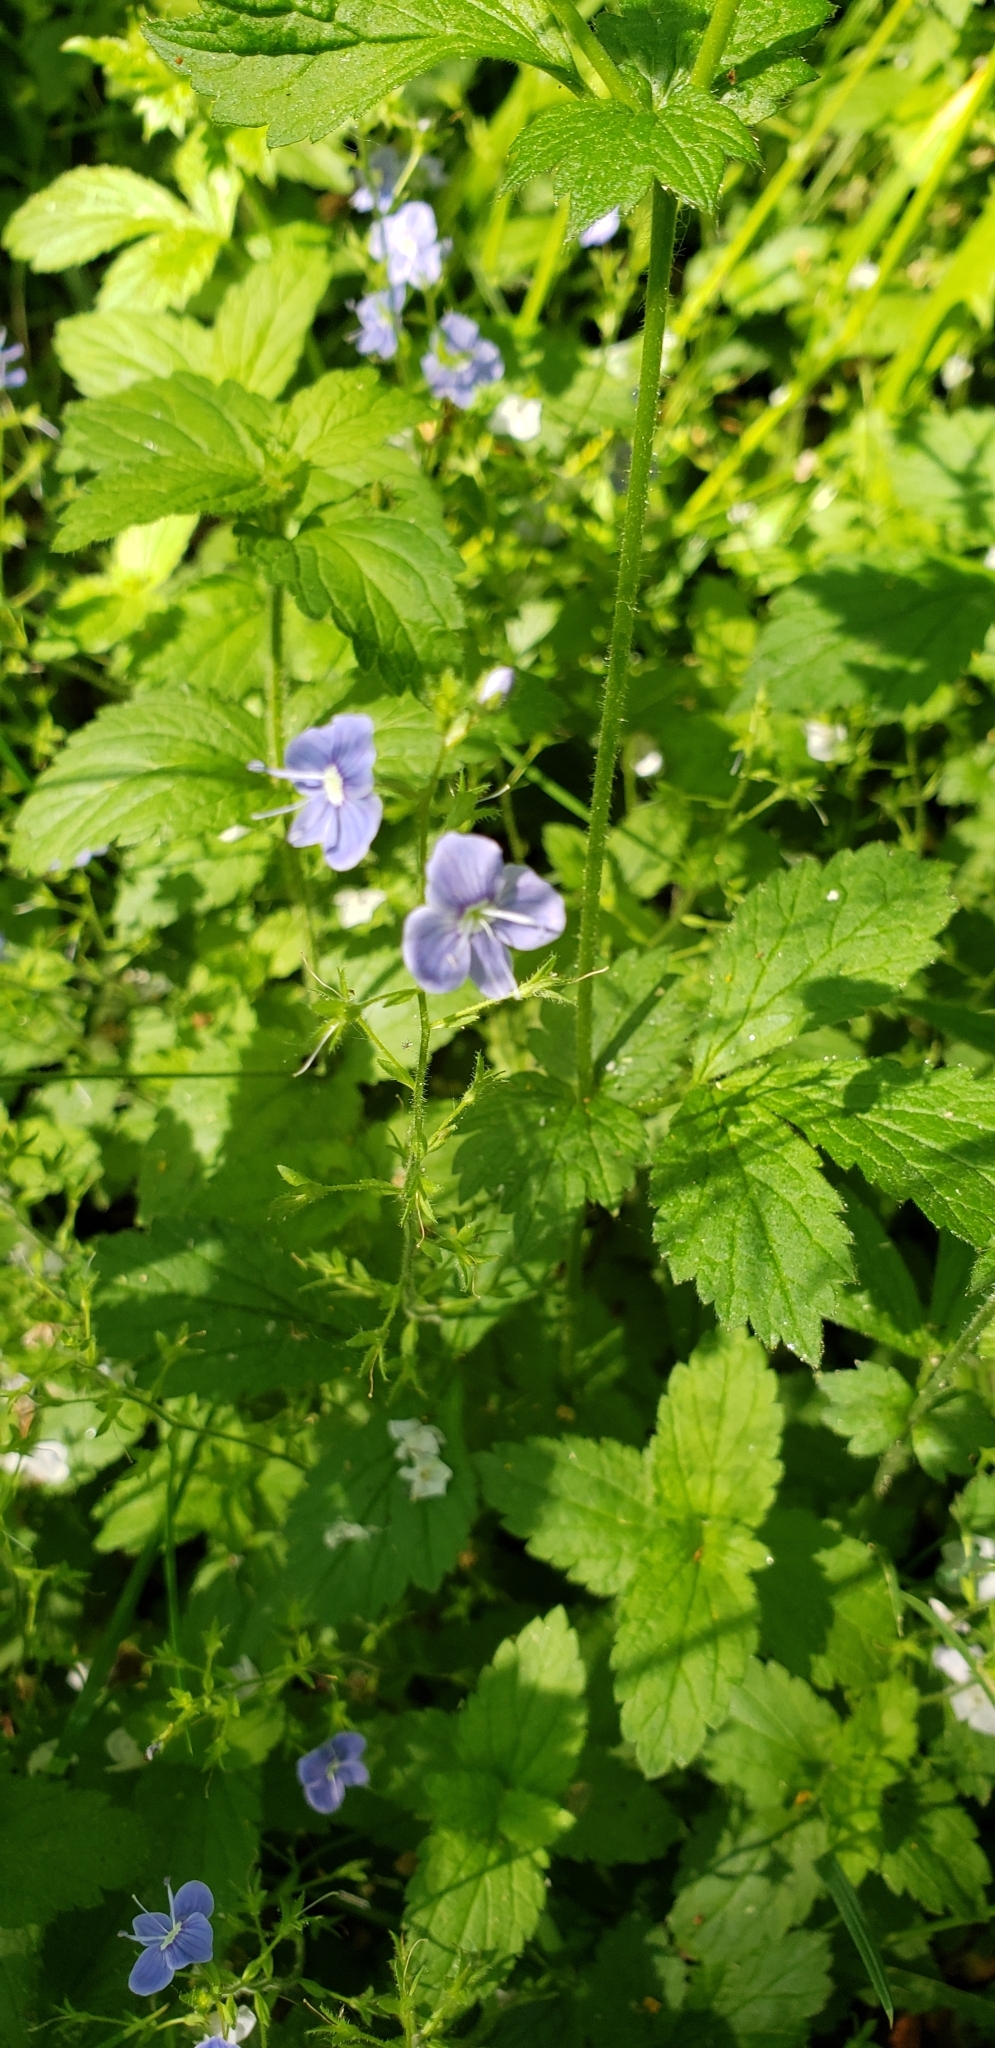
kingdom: Plantae
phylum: Tracheophyta
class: Magnoliopsida
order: Lamiales
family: Plantaginaceae
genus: Veronica
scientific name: Veronica chamaedrys
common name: Germander speedwell
